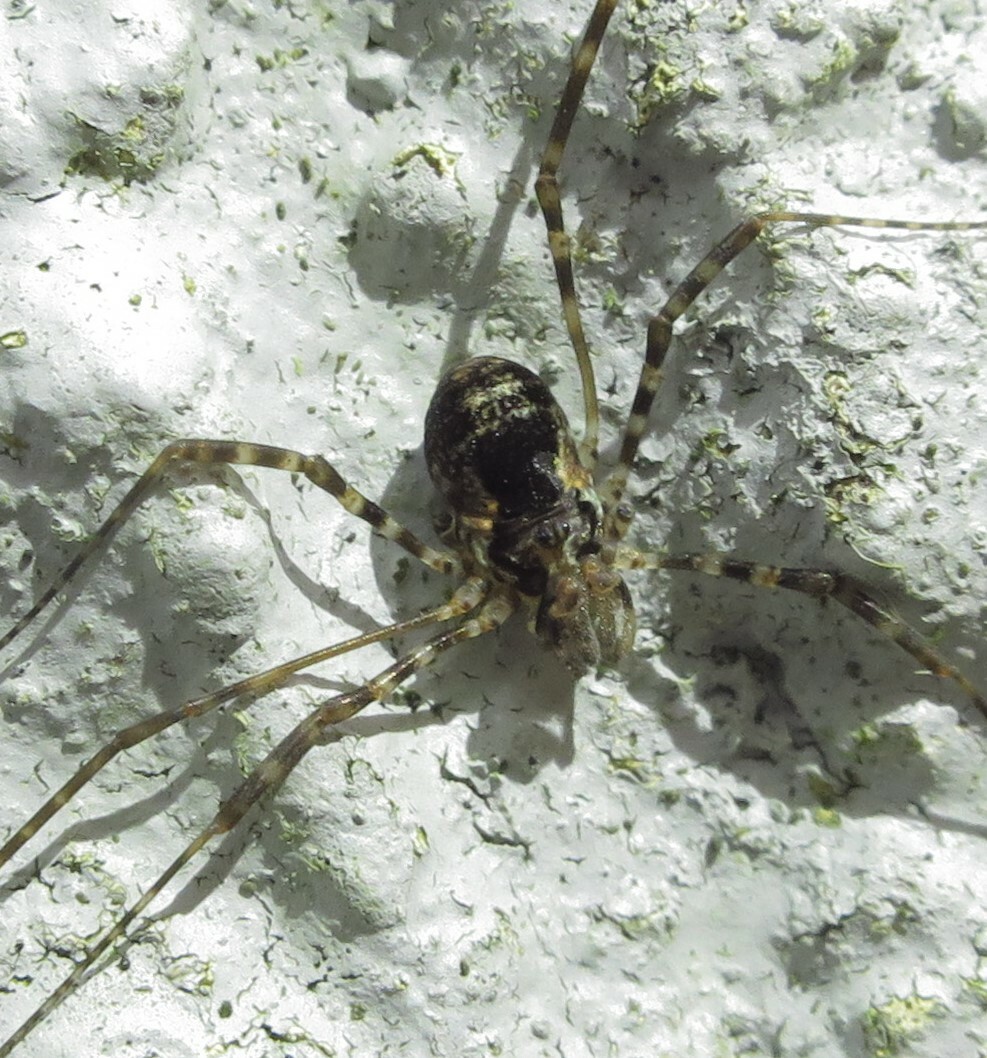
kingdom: Animalia
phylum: Arthropoda
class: Arachnida
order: Opiliones
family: Neopilionidae
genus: Megalopsalis
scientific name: Megalopsalis triascuta
